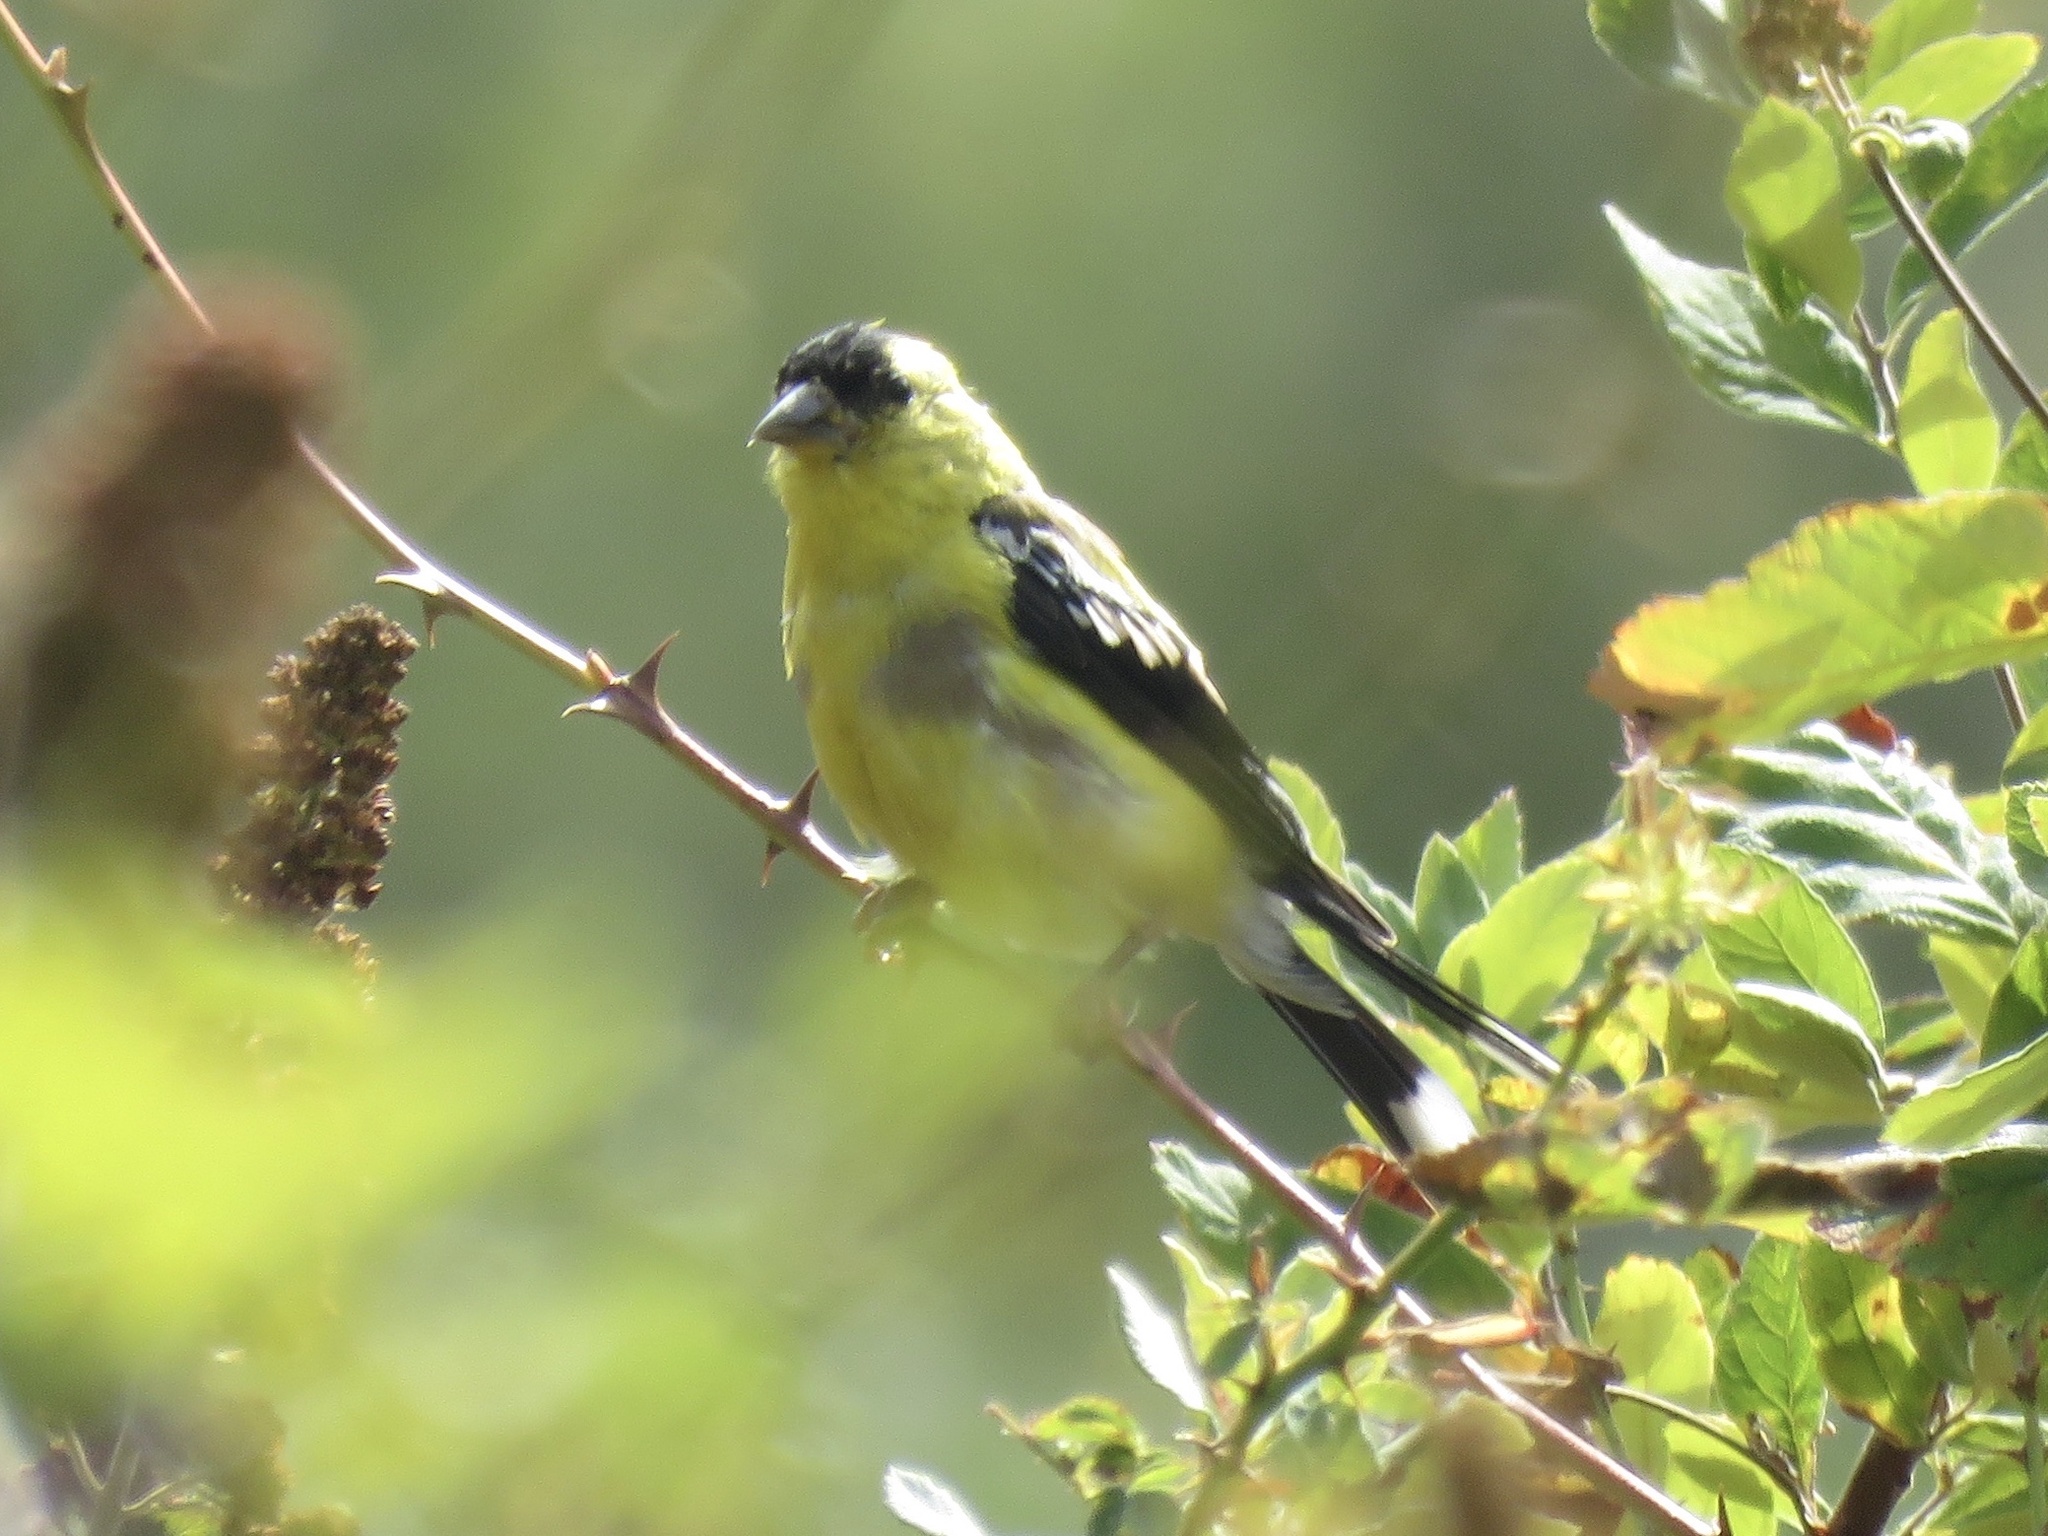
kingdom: Animalia
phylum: Chordata
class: Aves
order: Passeriformes
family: Fringillidae
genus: Spinus
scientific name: Spinus tristis
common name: American goldfinch
